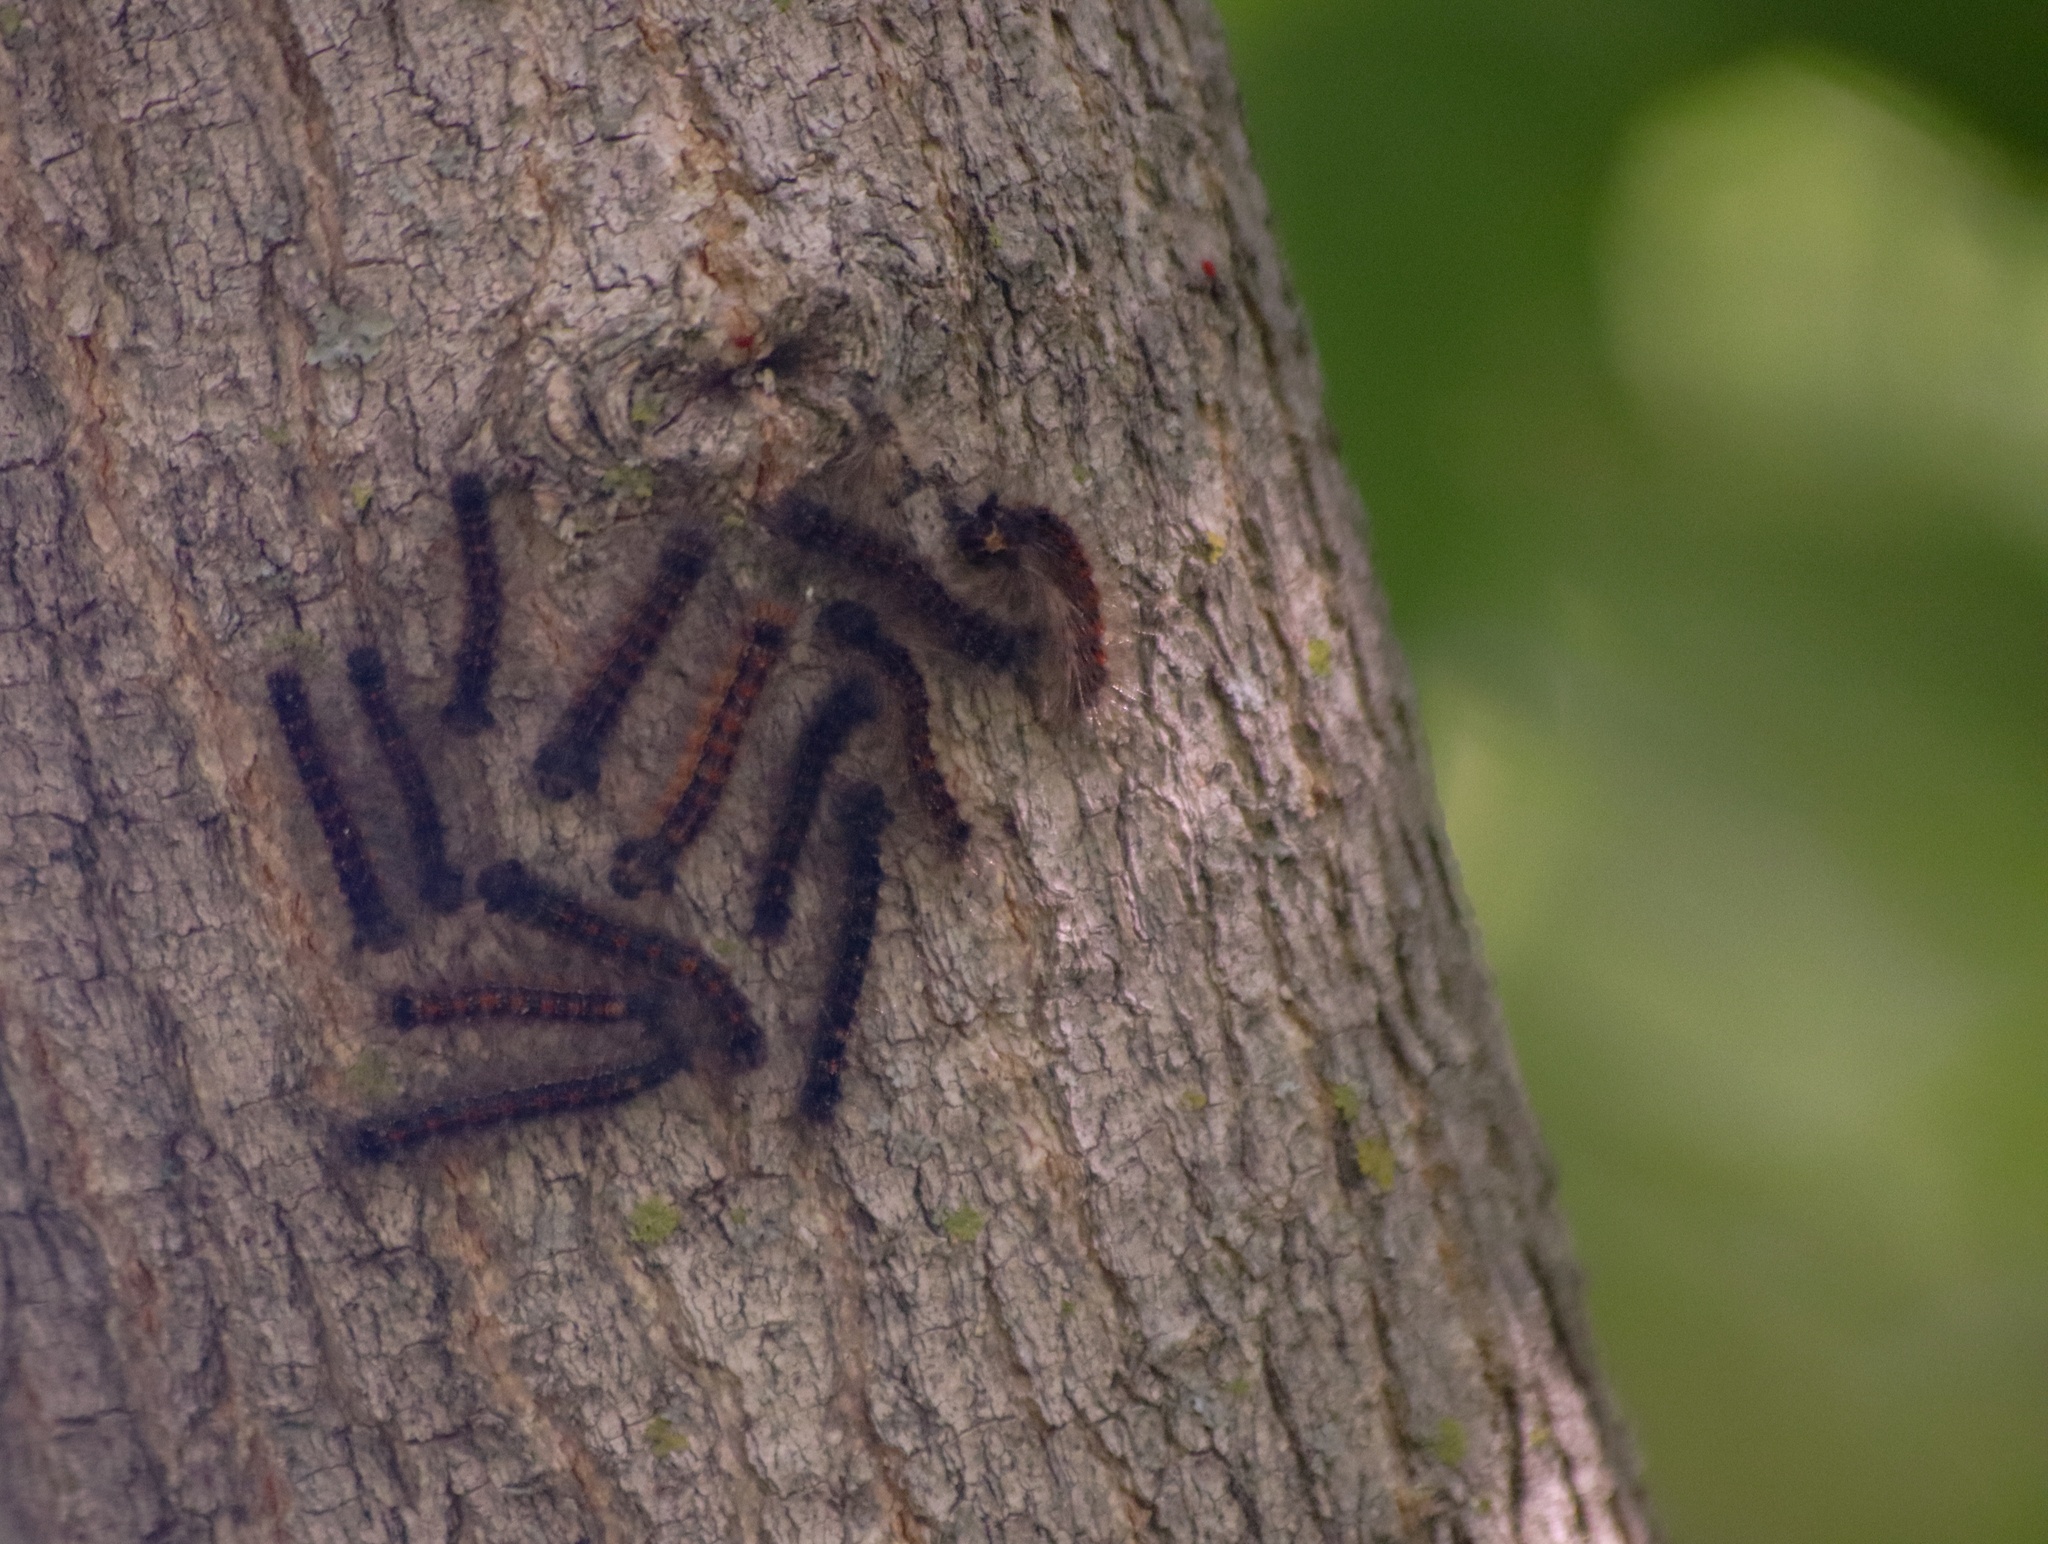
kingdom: Animalia
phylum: Arthropoda
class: Insecta
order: Lepidoptera
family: Erebidae
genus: Lymantria
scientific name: Lymantria dispar
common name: Gypsy moth
